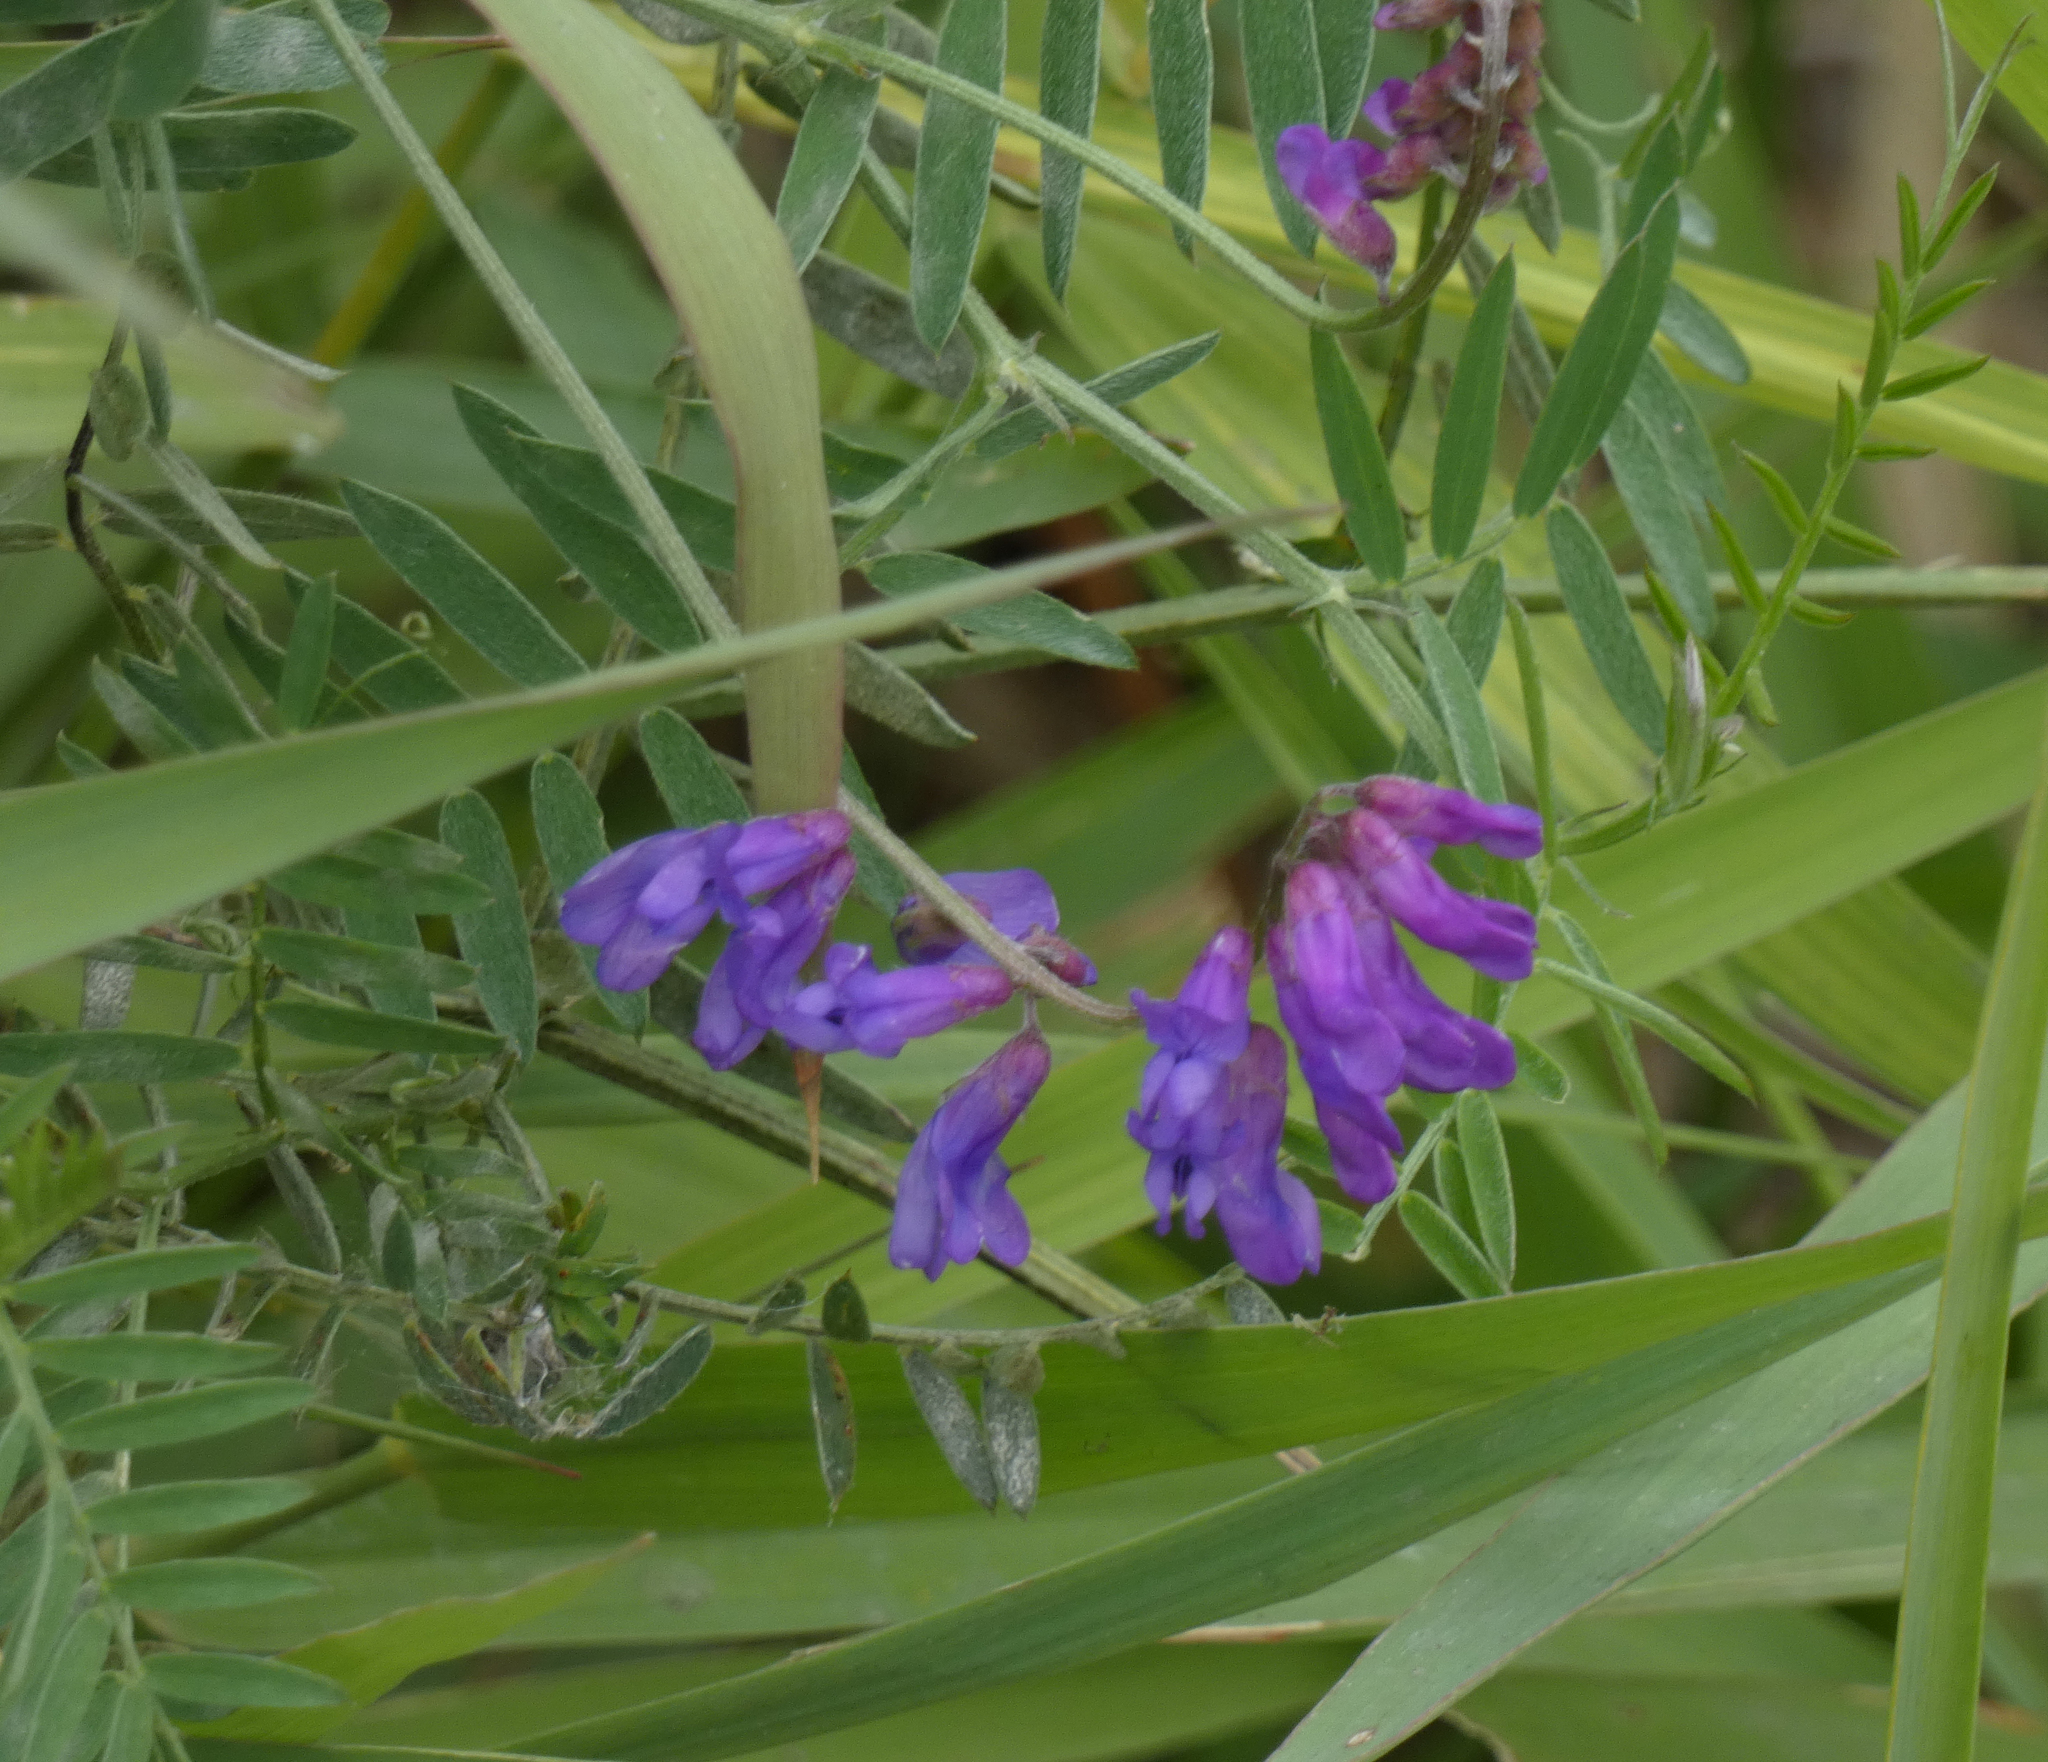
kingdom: Plantae
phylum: Tracheophyta
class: Magnoliopsida
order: Fabales
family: Fabaceae
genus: Vicia
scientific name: Vicia cracca
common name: Bird vetch
